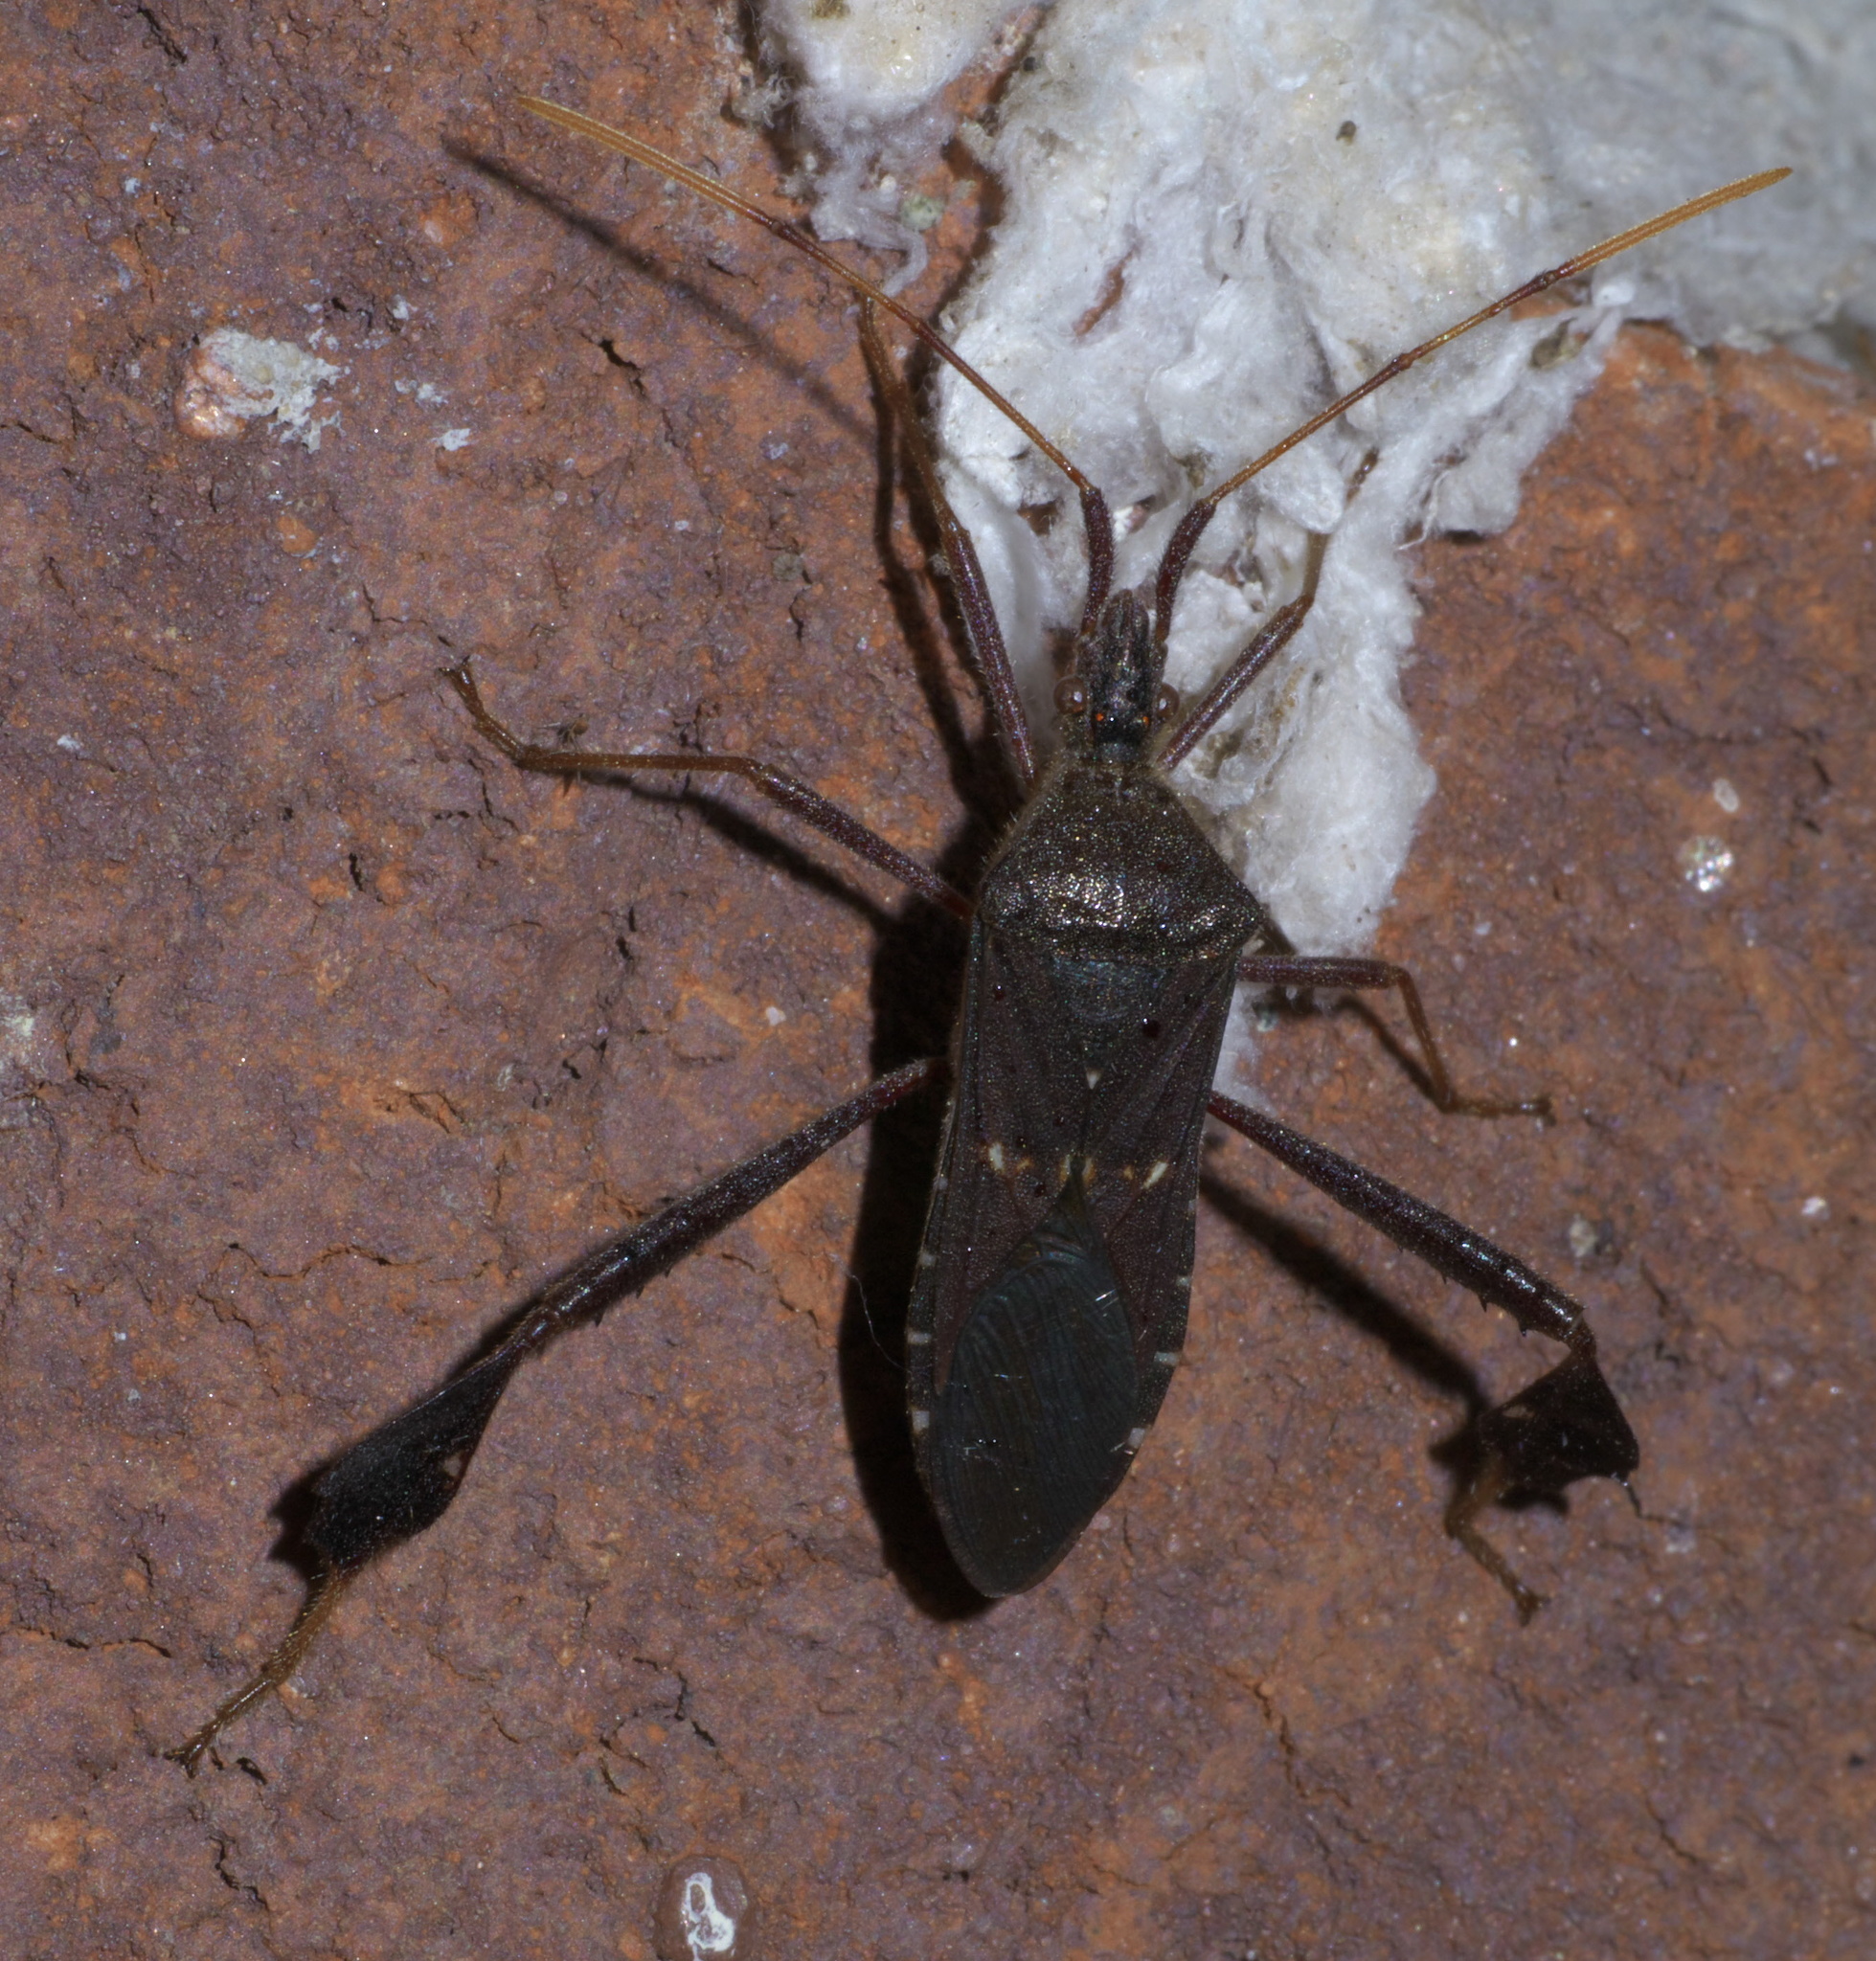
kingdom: Animalia
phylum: Arthropoda
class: Insecta
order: Hemiptera
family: Coreidae
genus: Leptoglossus
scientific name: Leptoglossus oppositus
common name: Northern leaf-footed bug
